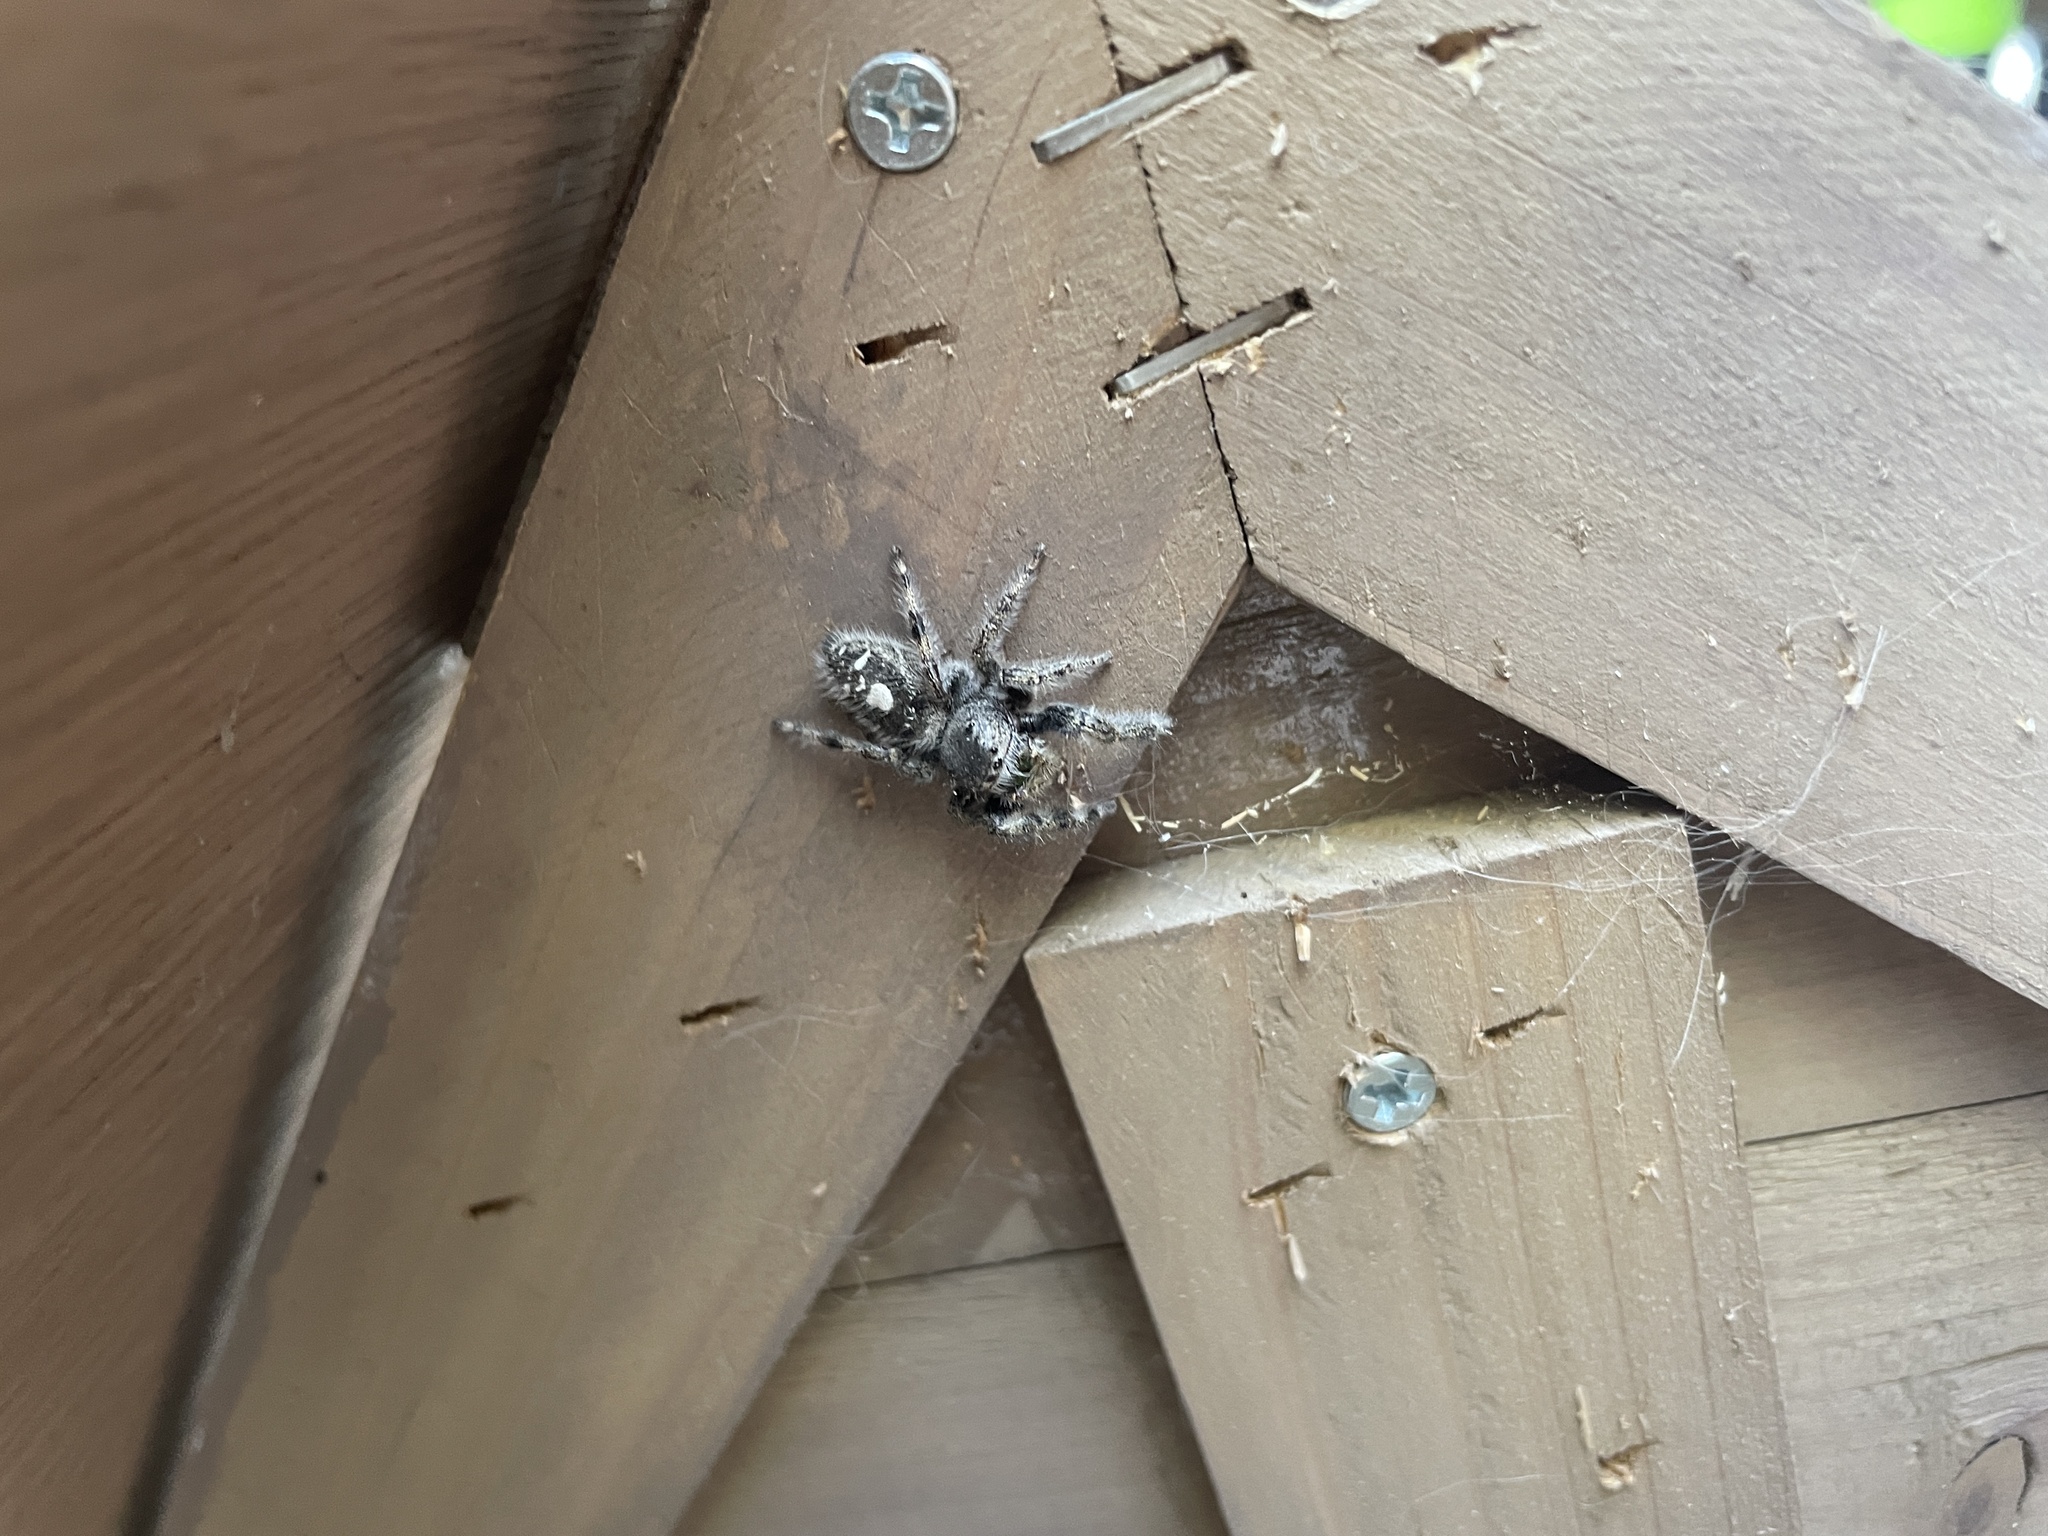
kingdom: Animalia
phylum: Arthropoda
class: Arachnida
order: Araneae
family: Salticidae
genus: Phidippus
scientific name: Phidippus audax
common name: Bold jumper
